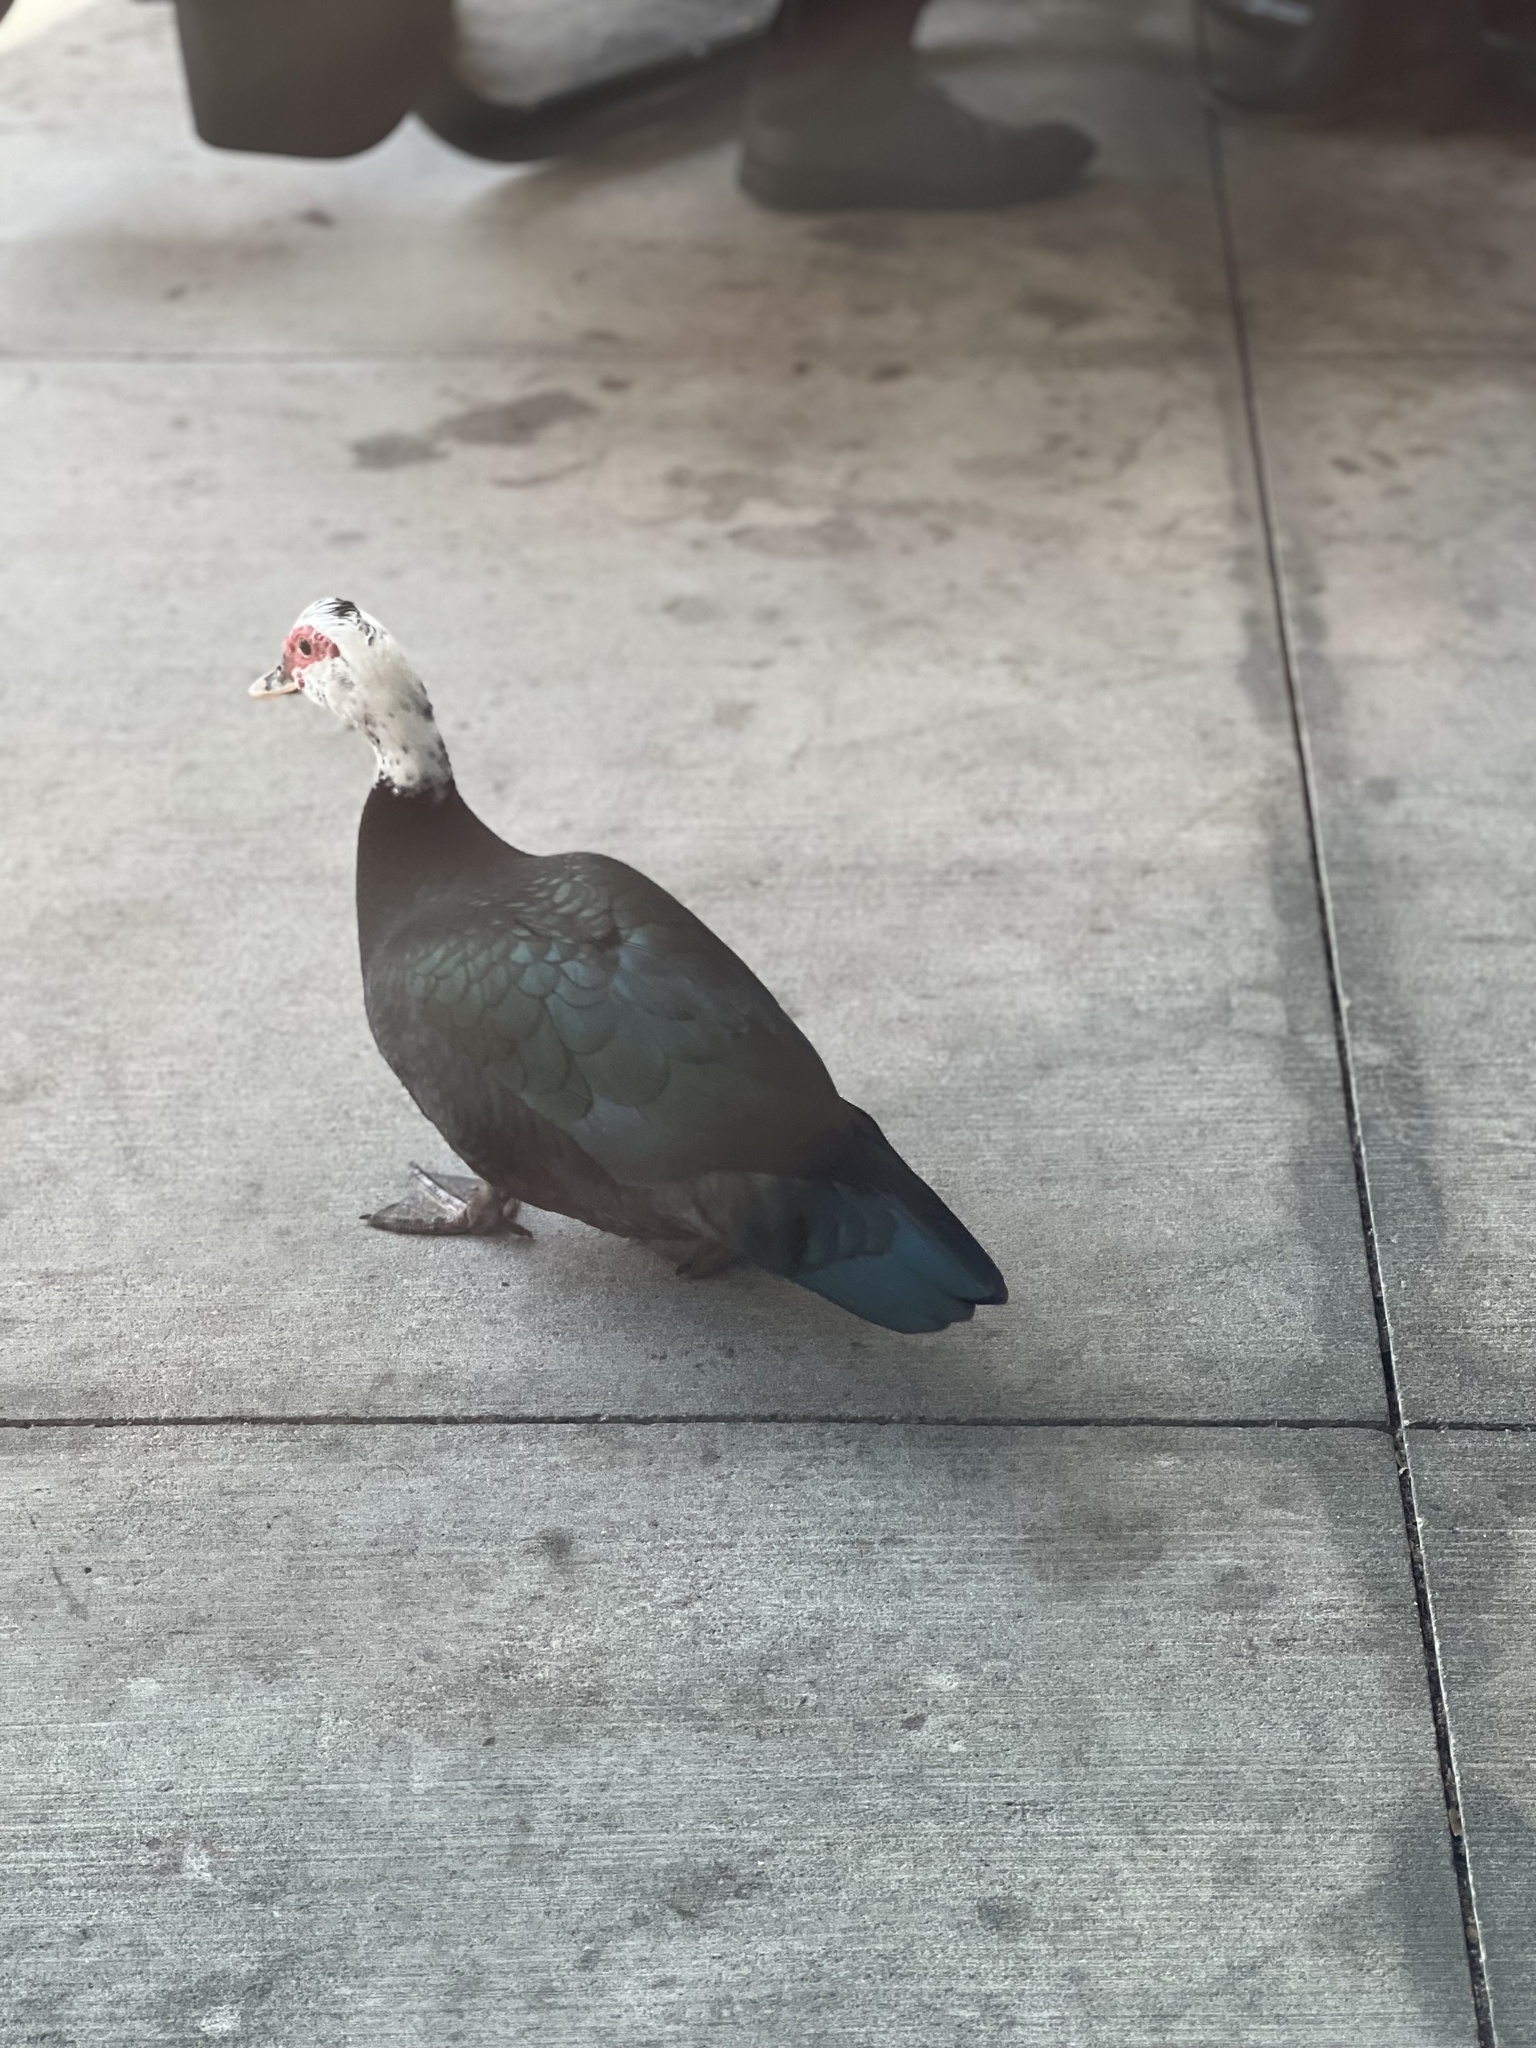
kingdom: Animalia
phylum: Chordata
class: Aves
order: Anseriformes
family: Anatidae
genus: Cairina
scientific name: Cairina moschata
